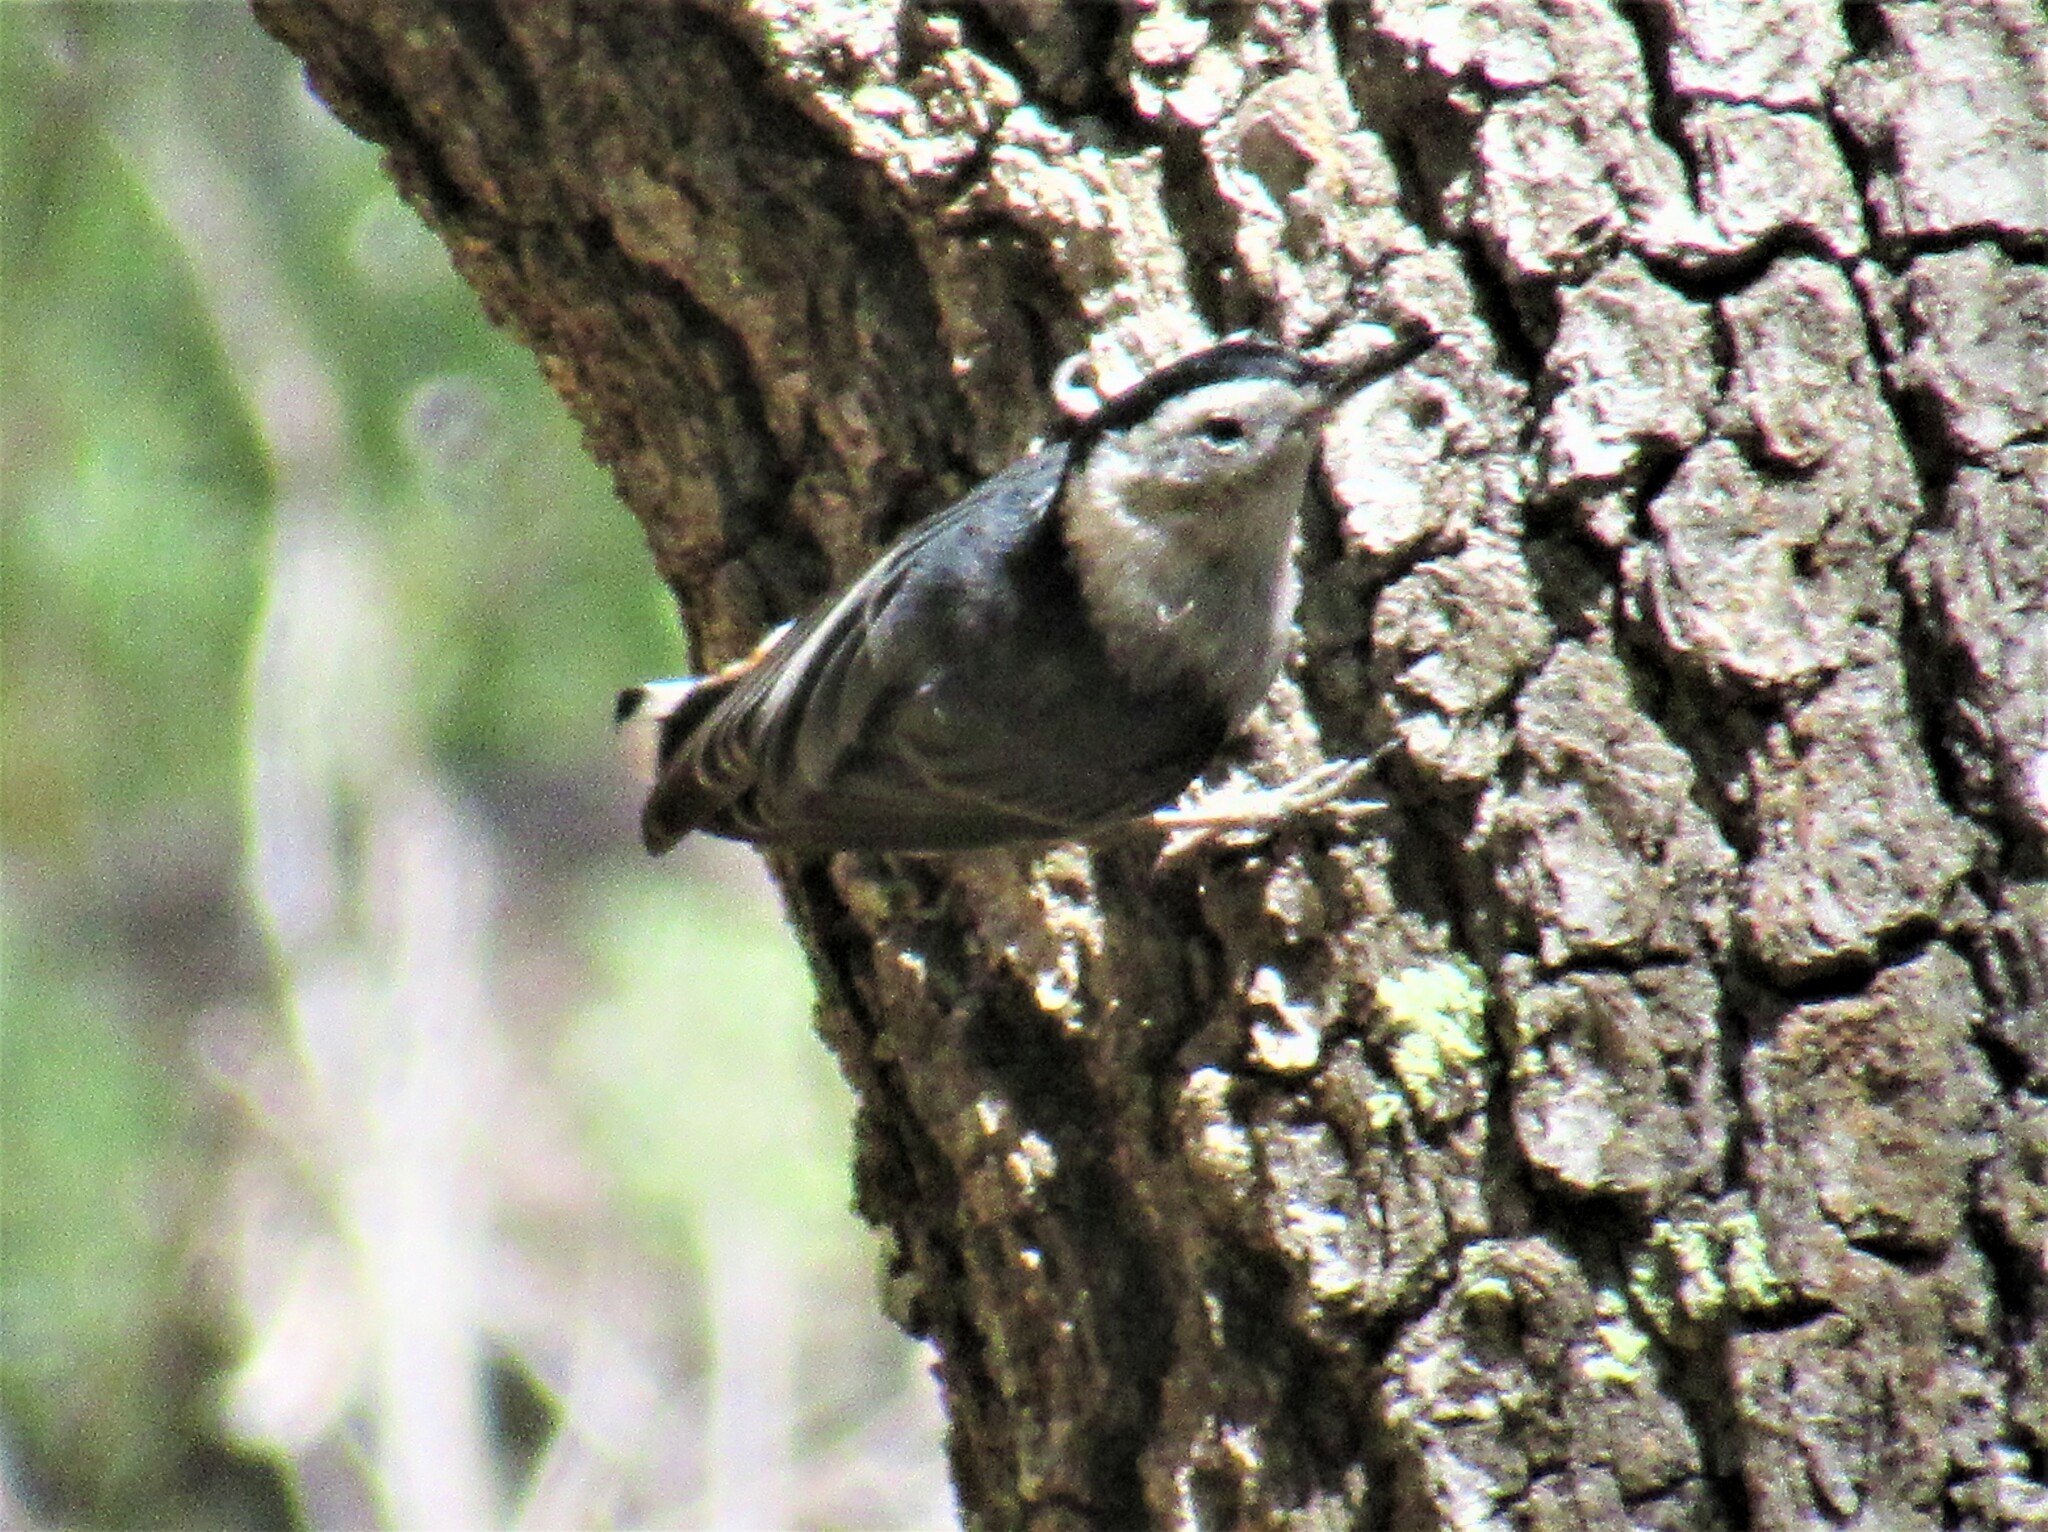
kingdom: Animalia
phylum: Chordata
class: Aves
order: Passeriformes
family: Sittidae
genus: Sitta
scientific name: Sitta carolinensis
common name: White-breasted nuthatch
